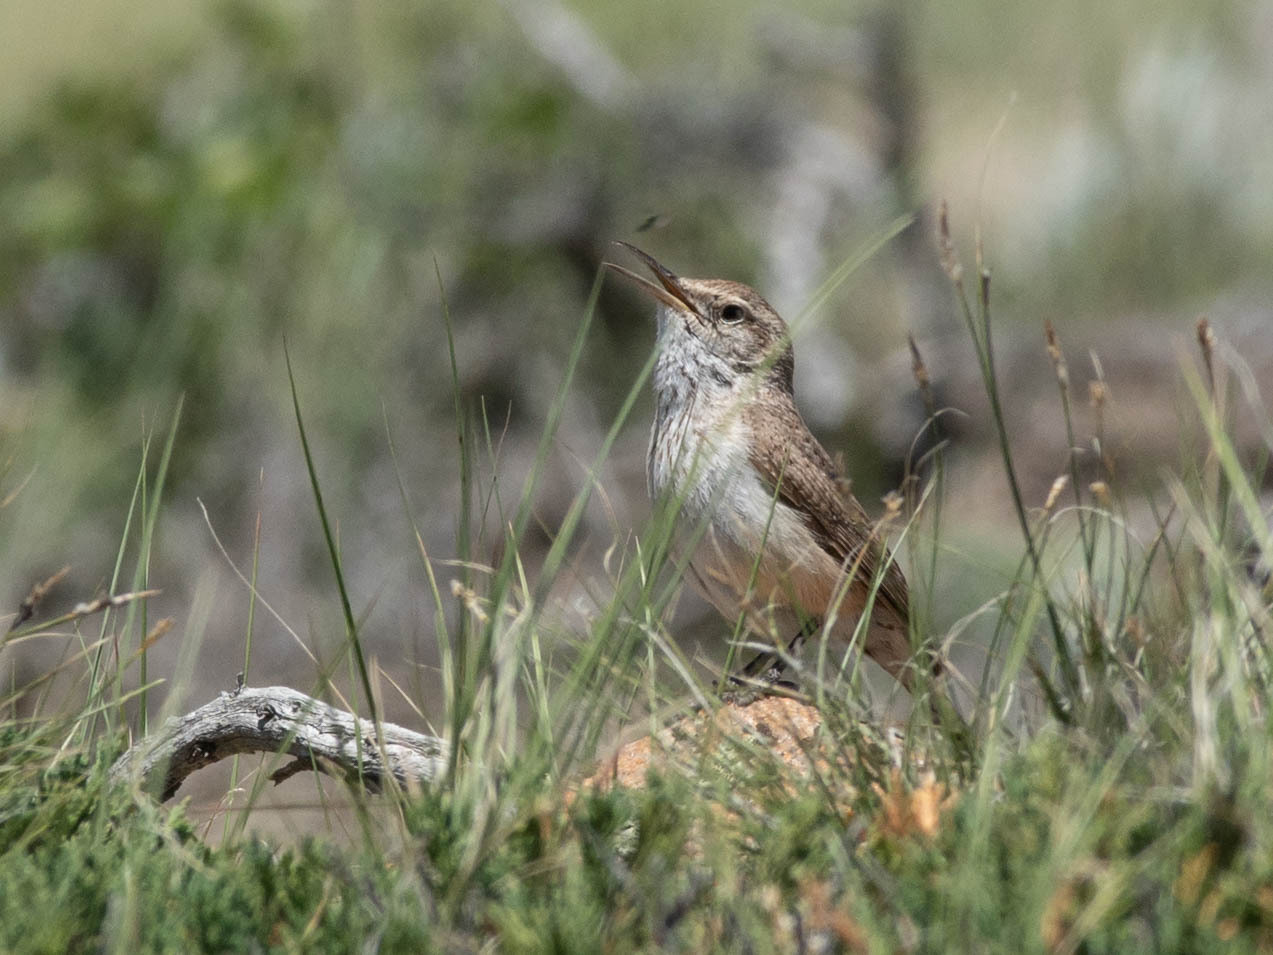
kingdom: Animalia
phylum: Chordata
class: Aves
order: Passeriformes
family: Troglodytidae
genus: Salpinctes
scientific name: Salpinctes obsoletus
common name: Rock wren
